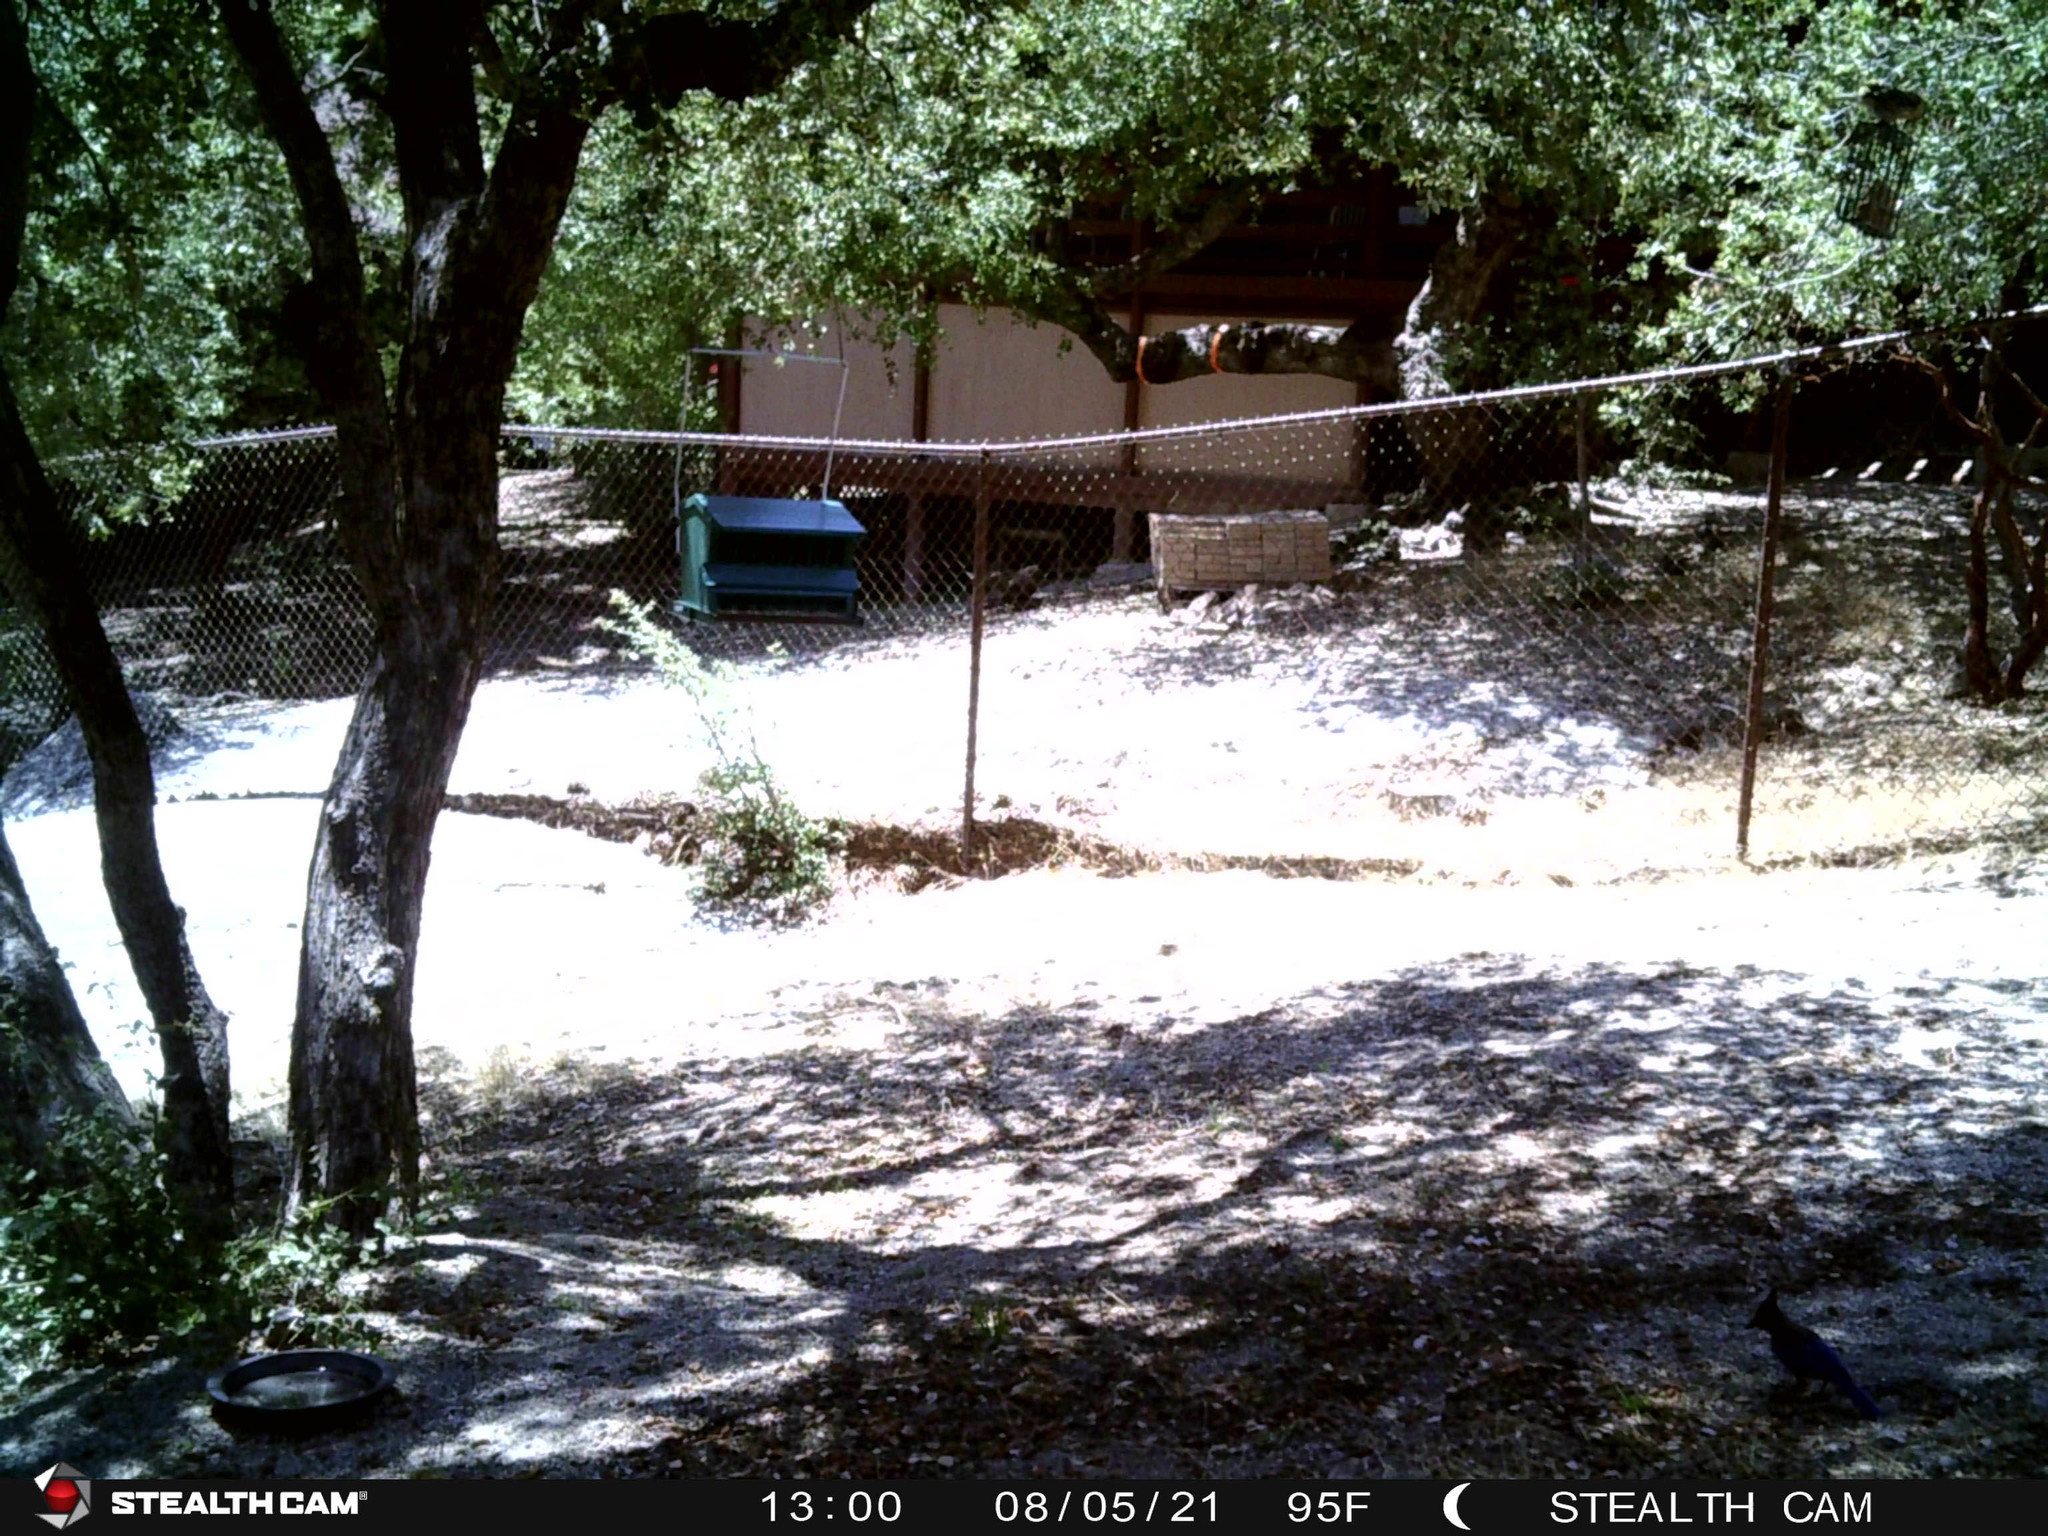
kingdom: Animalia
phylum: Chordata
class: Aves
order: Passeriformes
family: Corvidae
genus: Cyanocitta
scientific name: Cyanocitta stelleri
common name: Steller's jay
